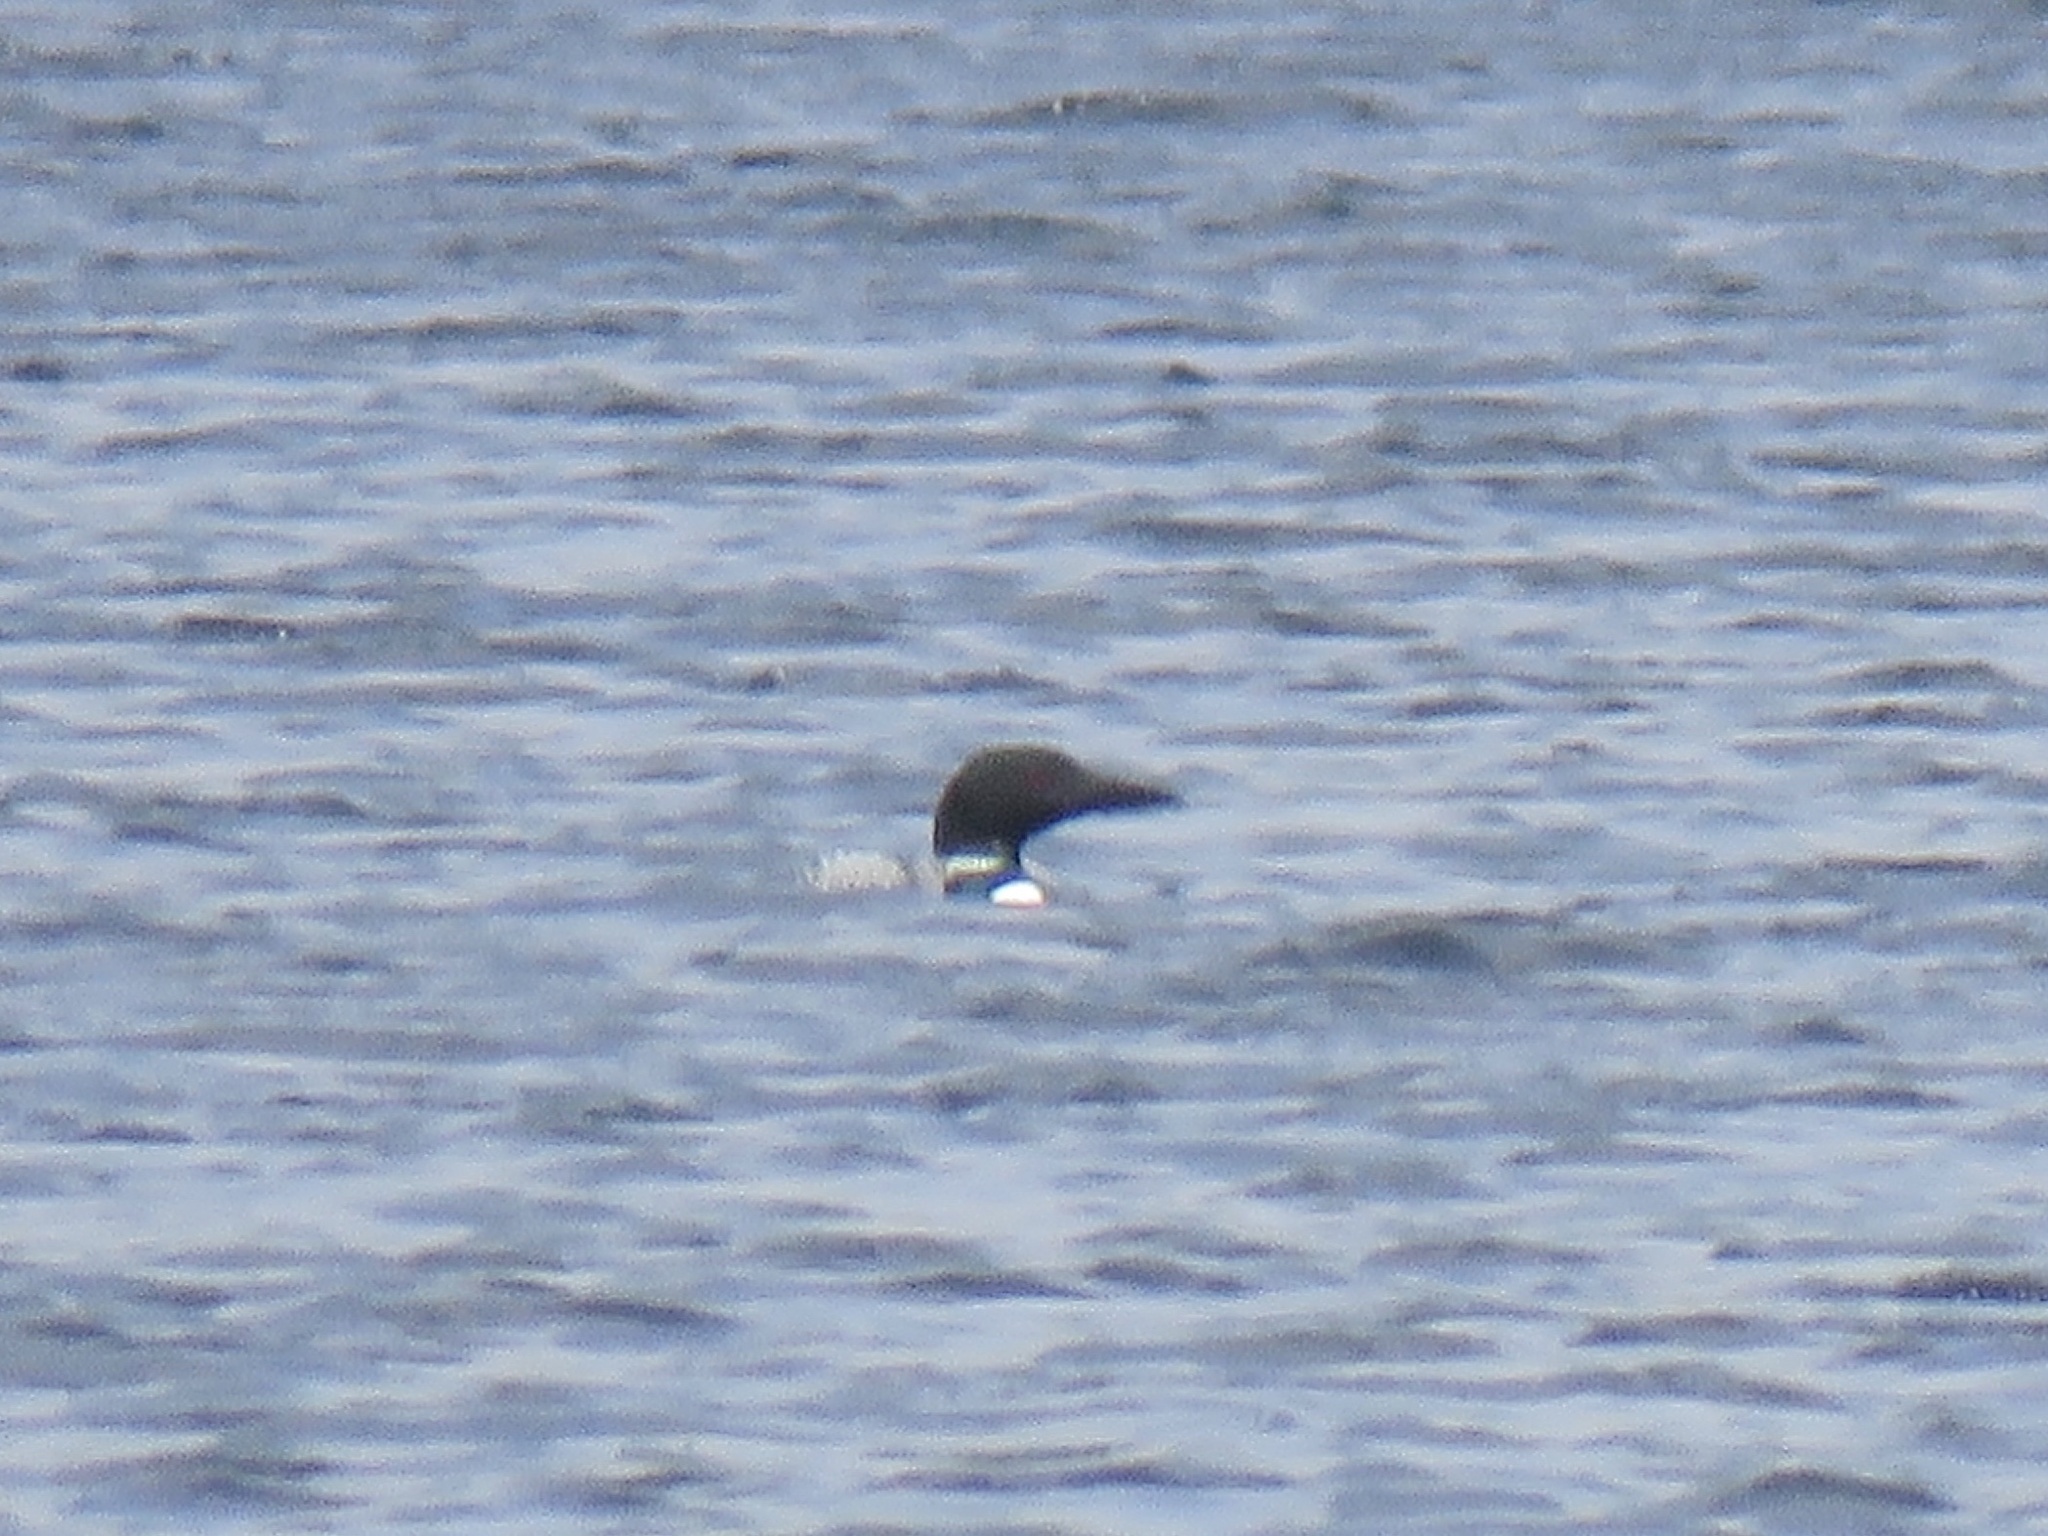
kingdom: Animalia
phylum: Chordata
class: Aves
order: Gaviiformes
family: Gaviidae
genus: Gavia
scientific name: Gavia immer
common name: Common loon
